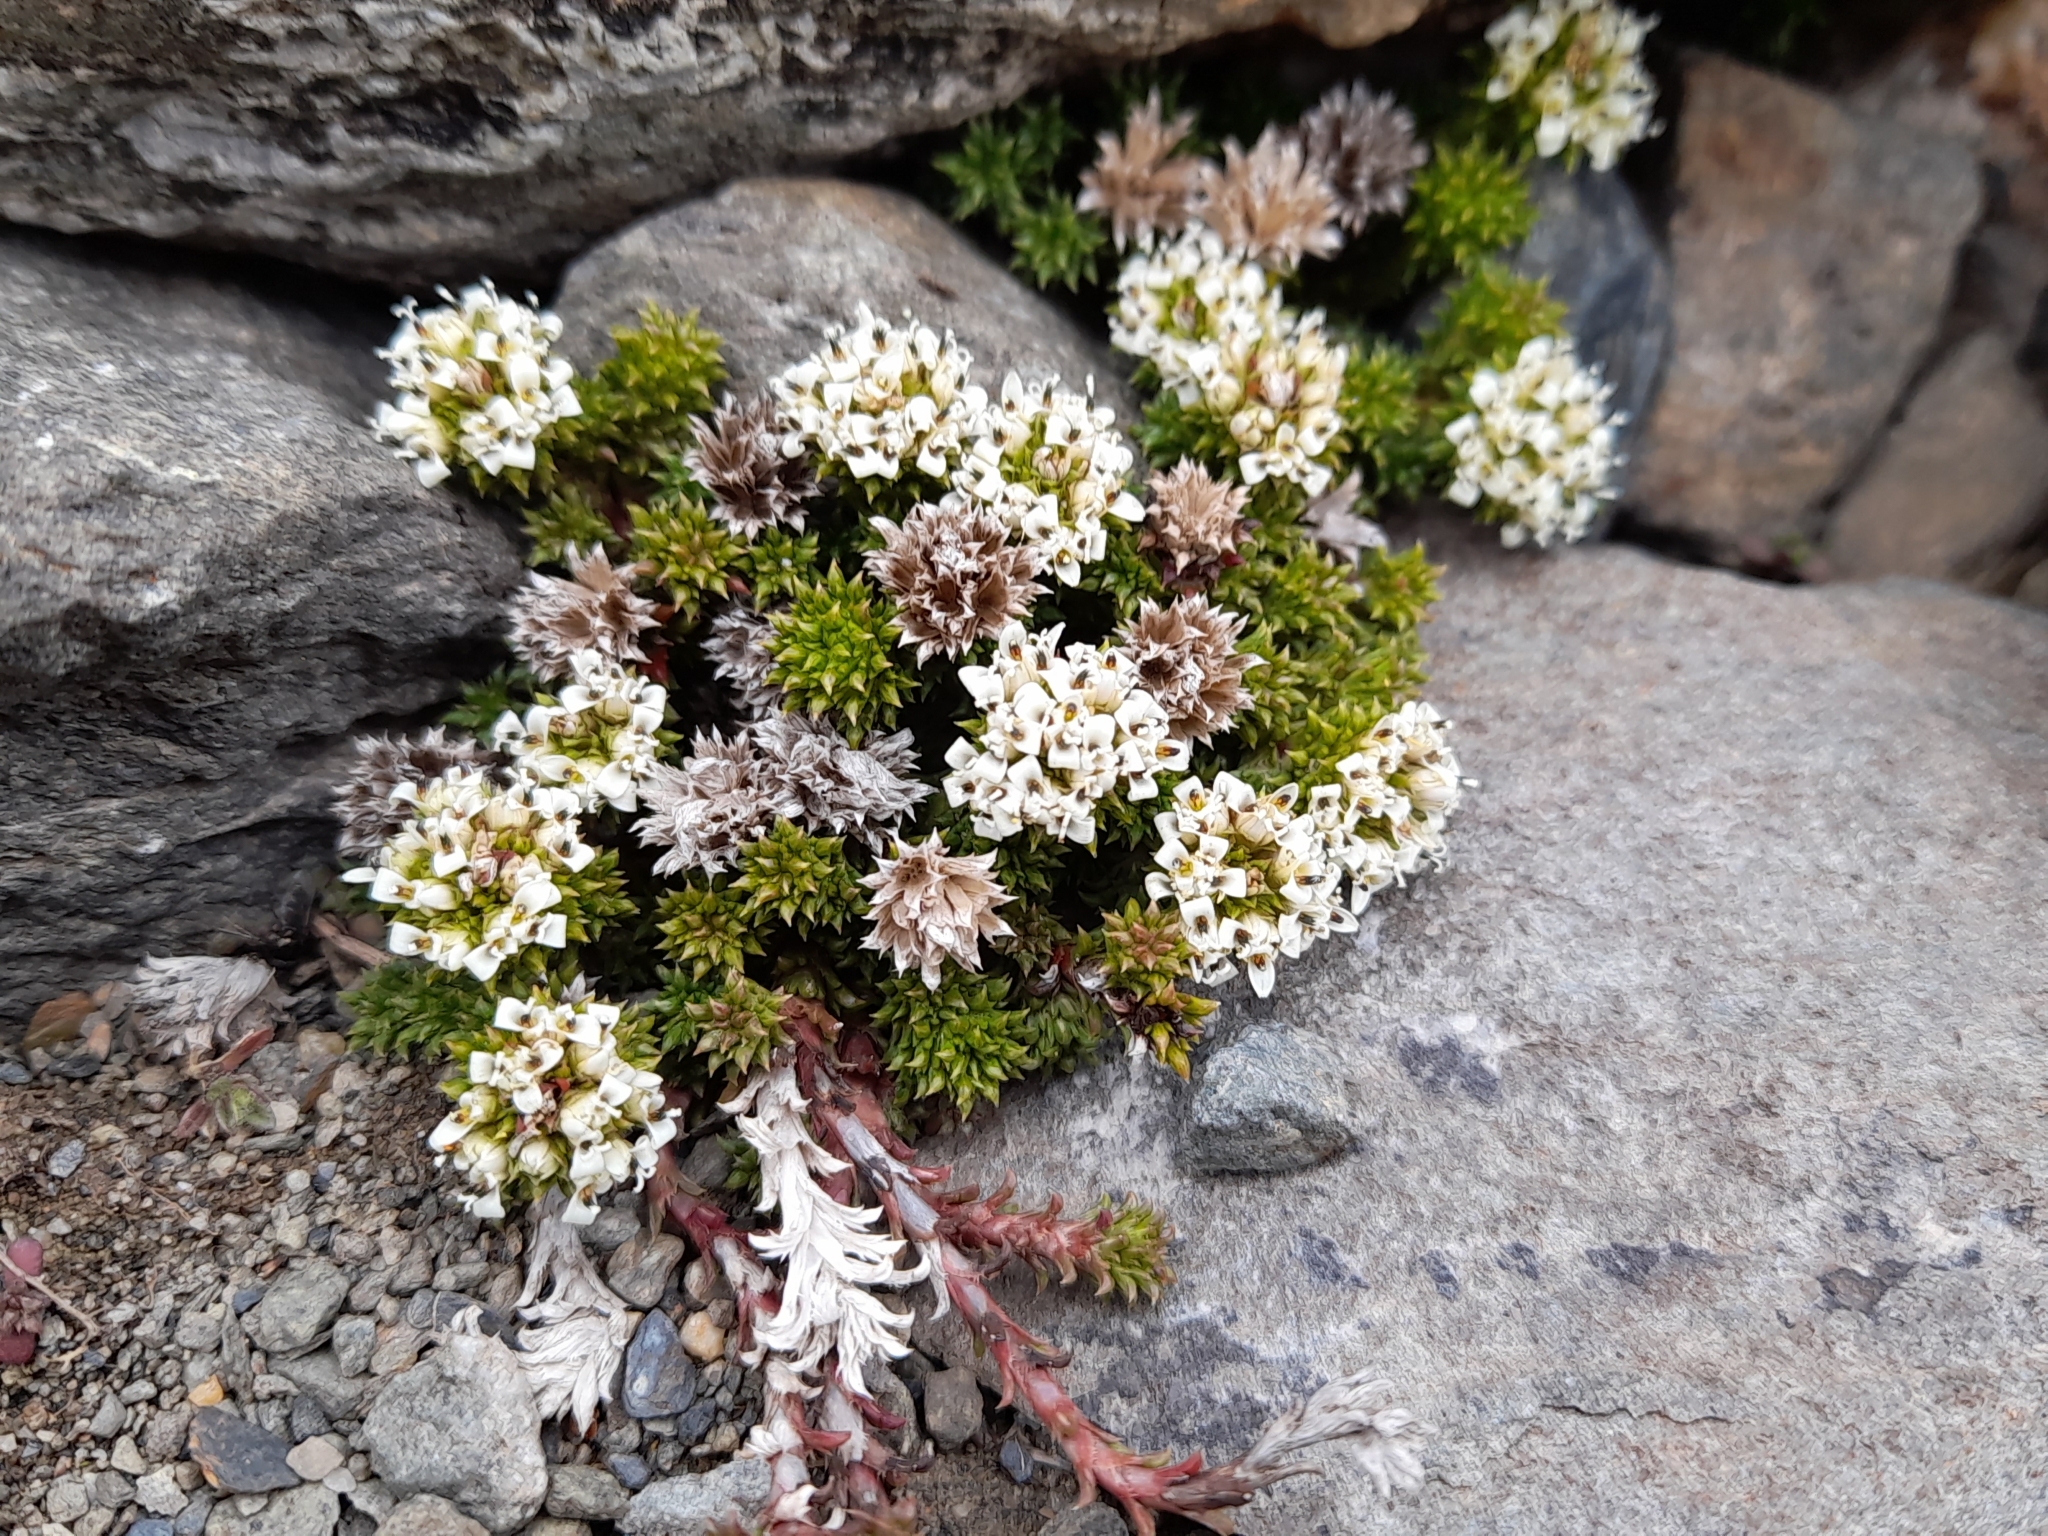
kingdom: Plantae
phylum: Tracheophyta
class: Magnoliopsida
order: Asterales
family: Asteraceae
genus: Nassauvia
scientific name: Nassauvia pygmaea
